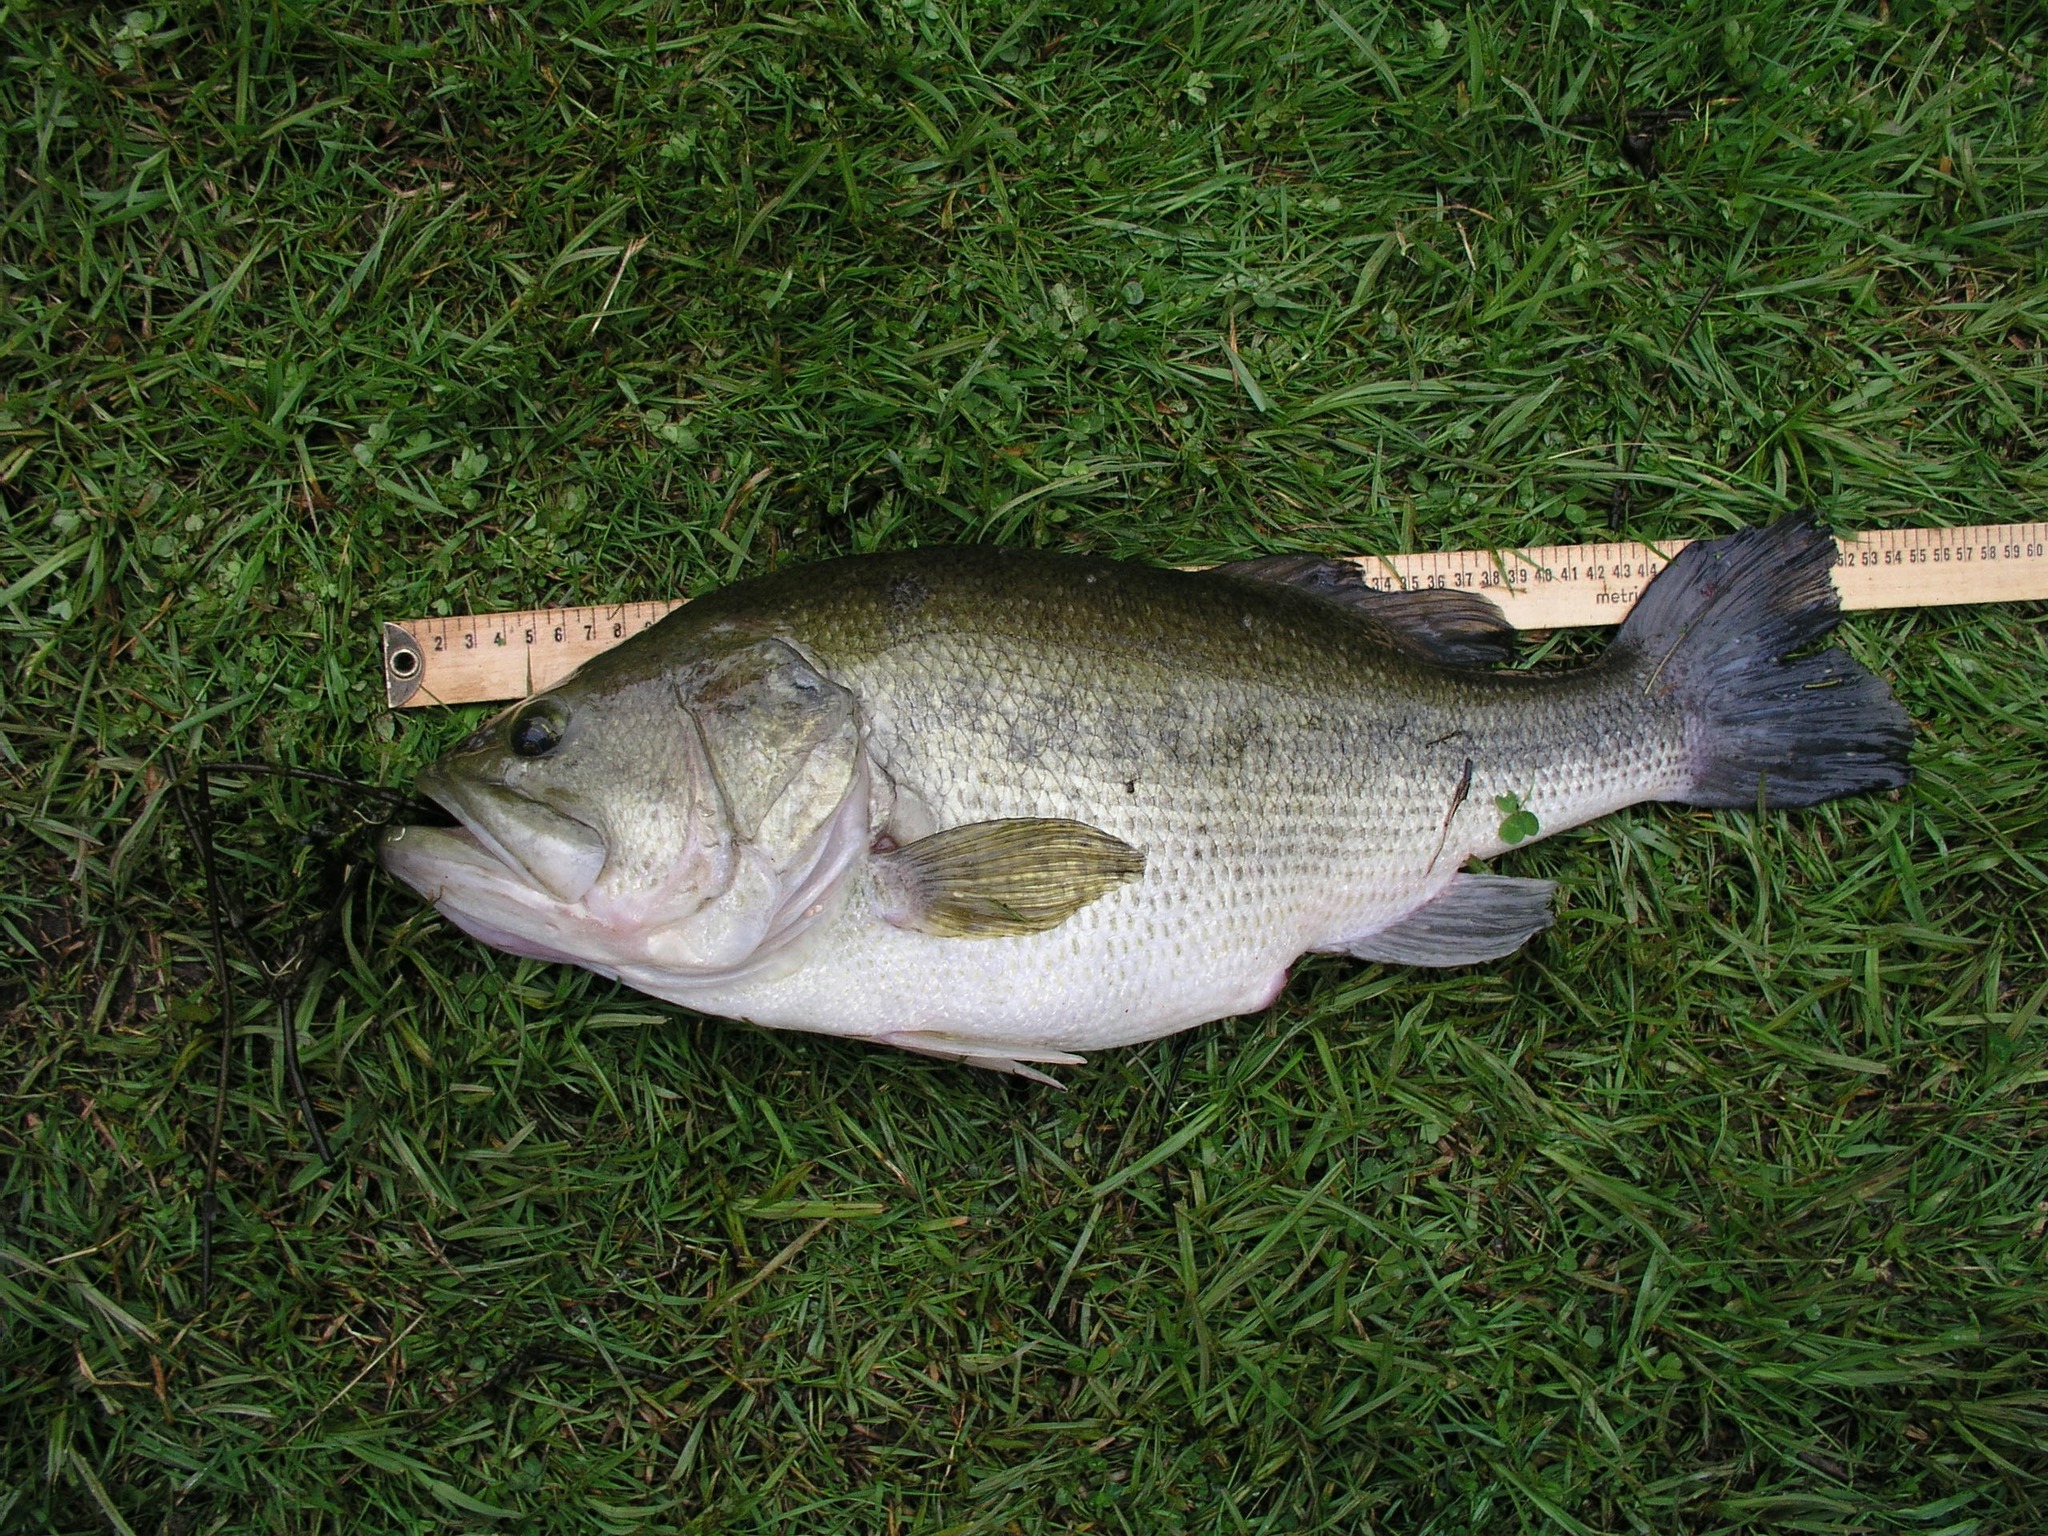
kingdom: Animalia
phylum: Chordata
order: Perciformes
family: Centrarchidae
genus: Micropterus
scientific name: Micropterus
